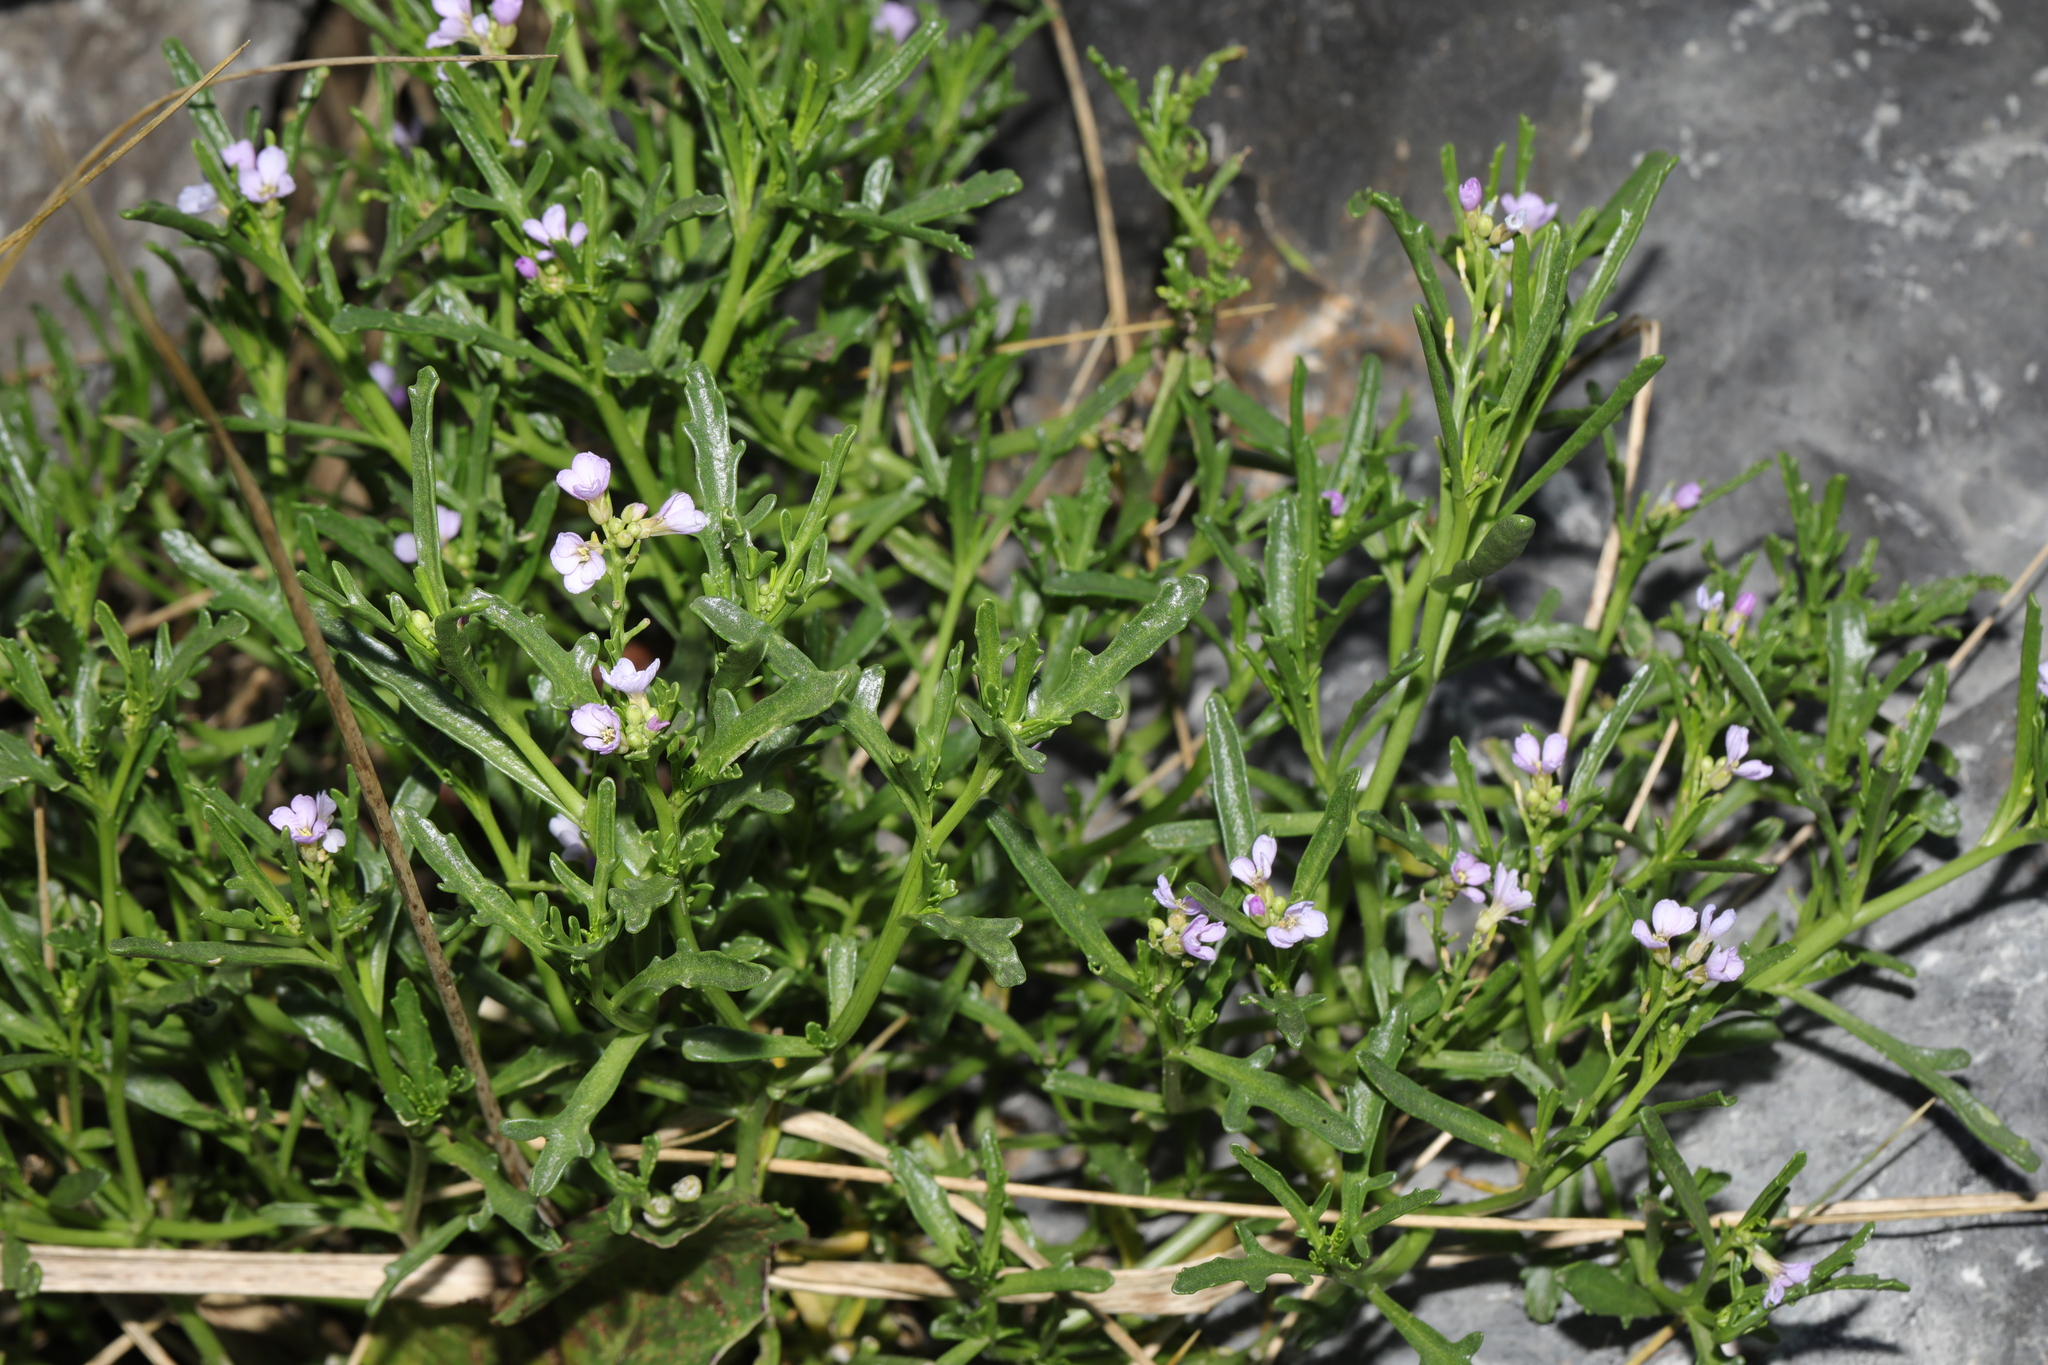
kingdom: Plantae
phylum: Tracheophyta
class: Magnoliopsida
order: Brassicales
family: Brassicaceae
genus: Cakile
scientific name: Cakile maritima
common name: Sea rocket
